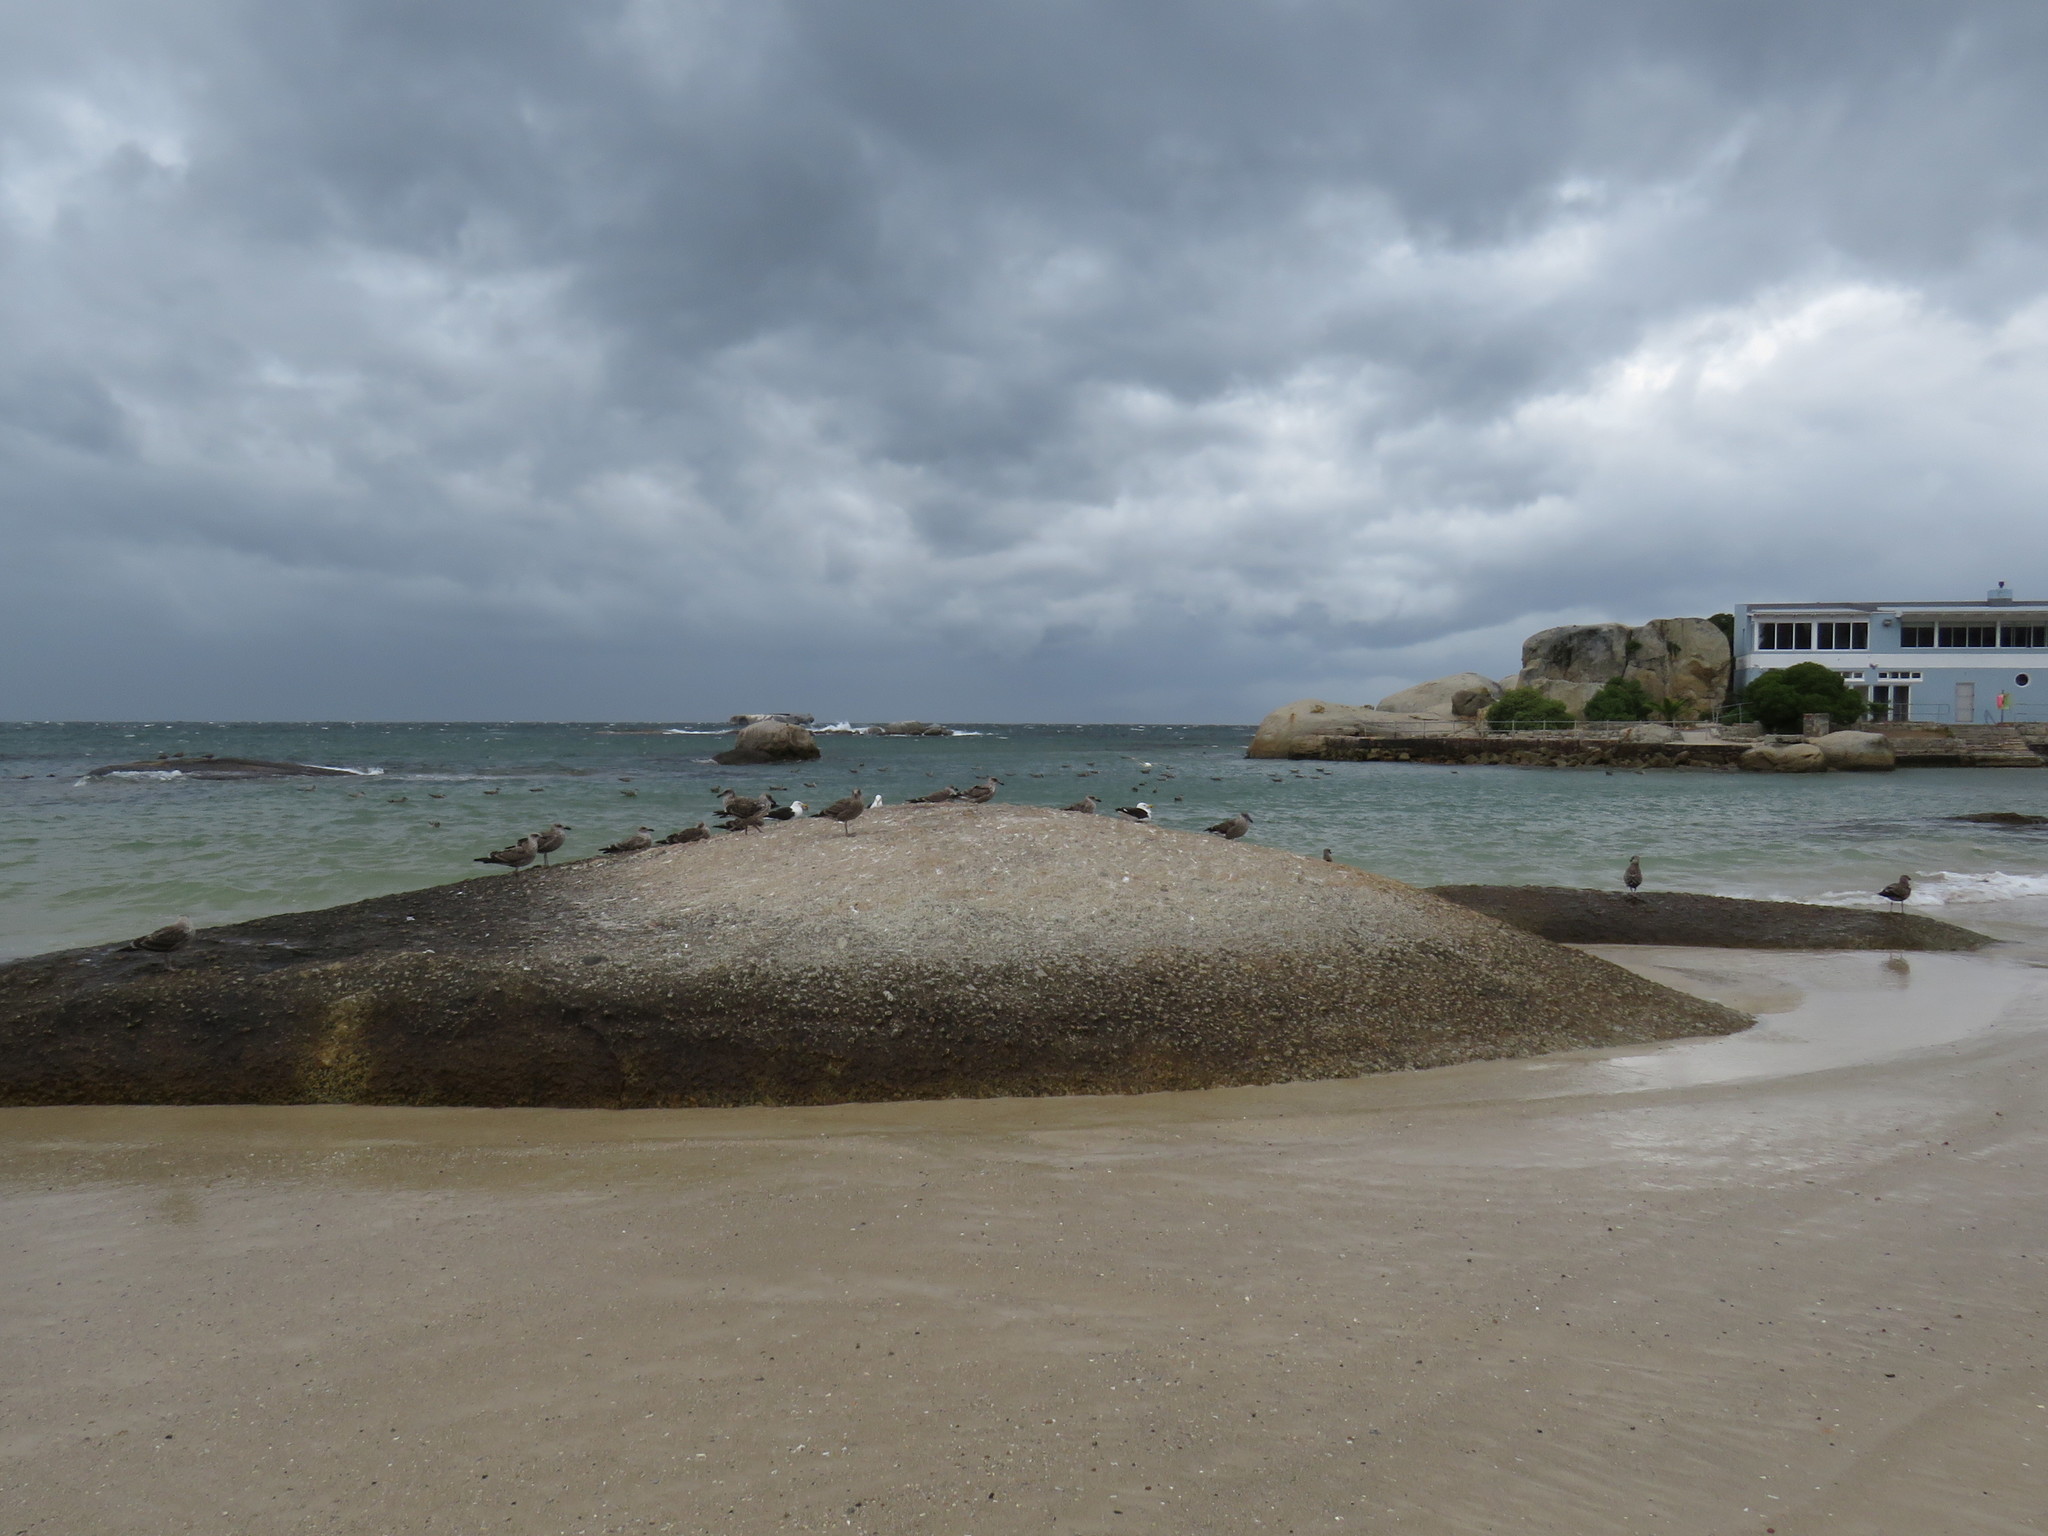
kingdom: Animalia
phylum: Chordata
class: Aves
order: Charadriiformes
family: Laridae
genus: Larus
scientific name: Larus dominicanus
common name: Kelp gull
